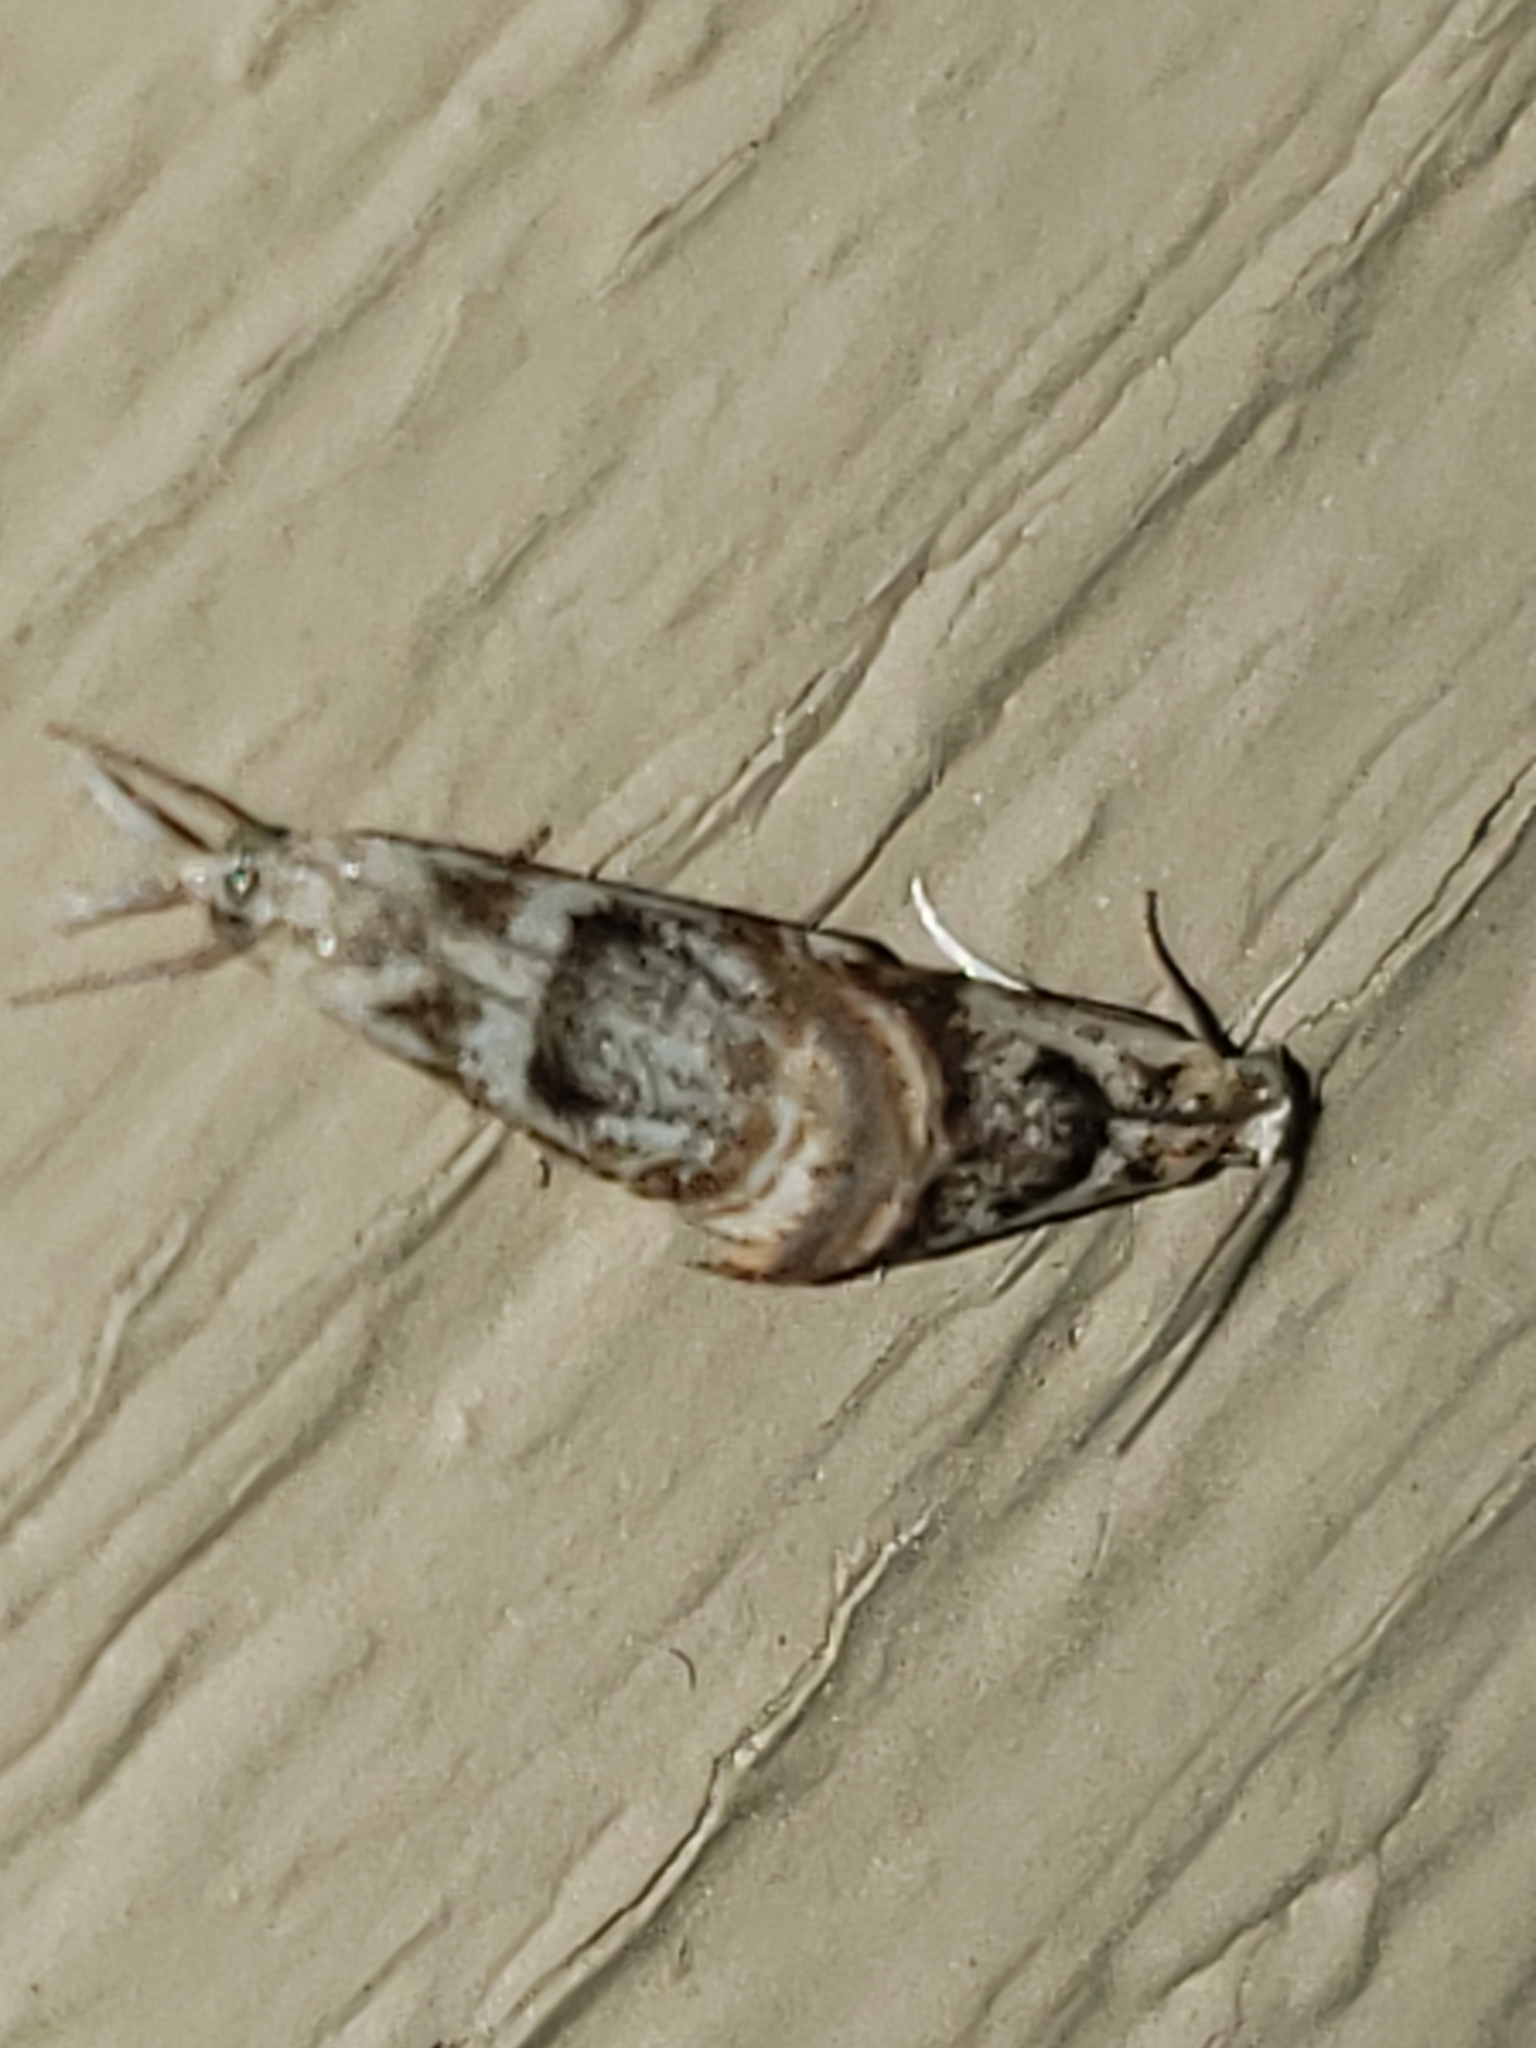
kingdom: Animalia
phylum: Arthropoda
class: Insecta
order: Lepidoptera
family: Crambidae
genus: Microcrambus
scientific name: Microcrambus elegans
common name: Elegant grass-veneer
